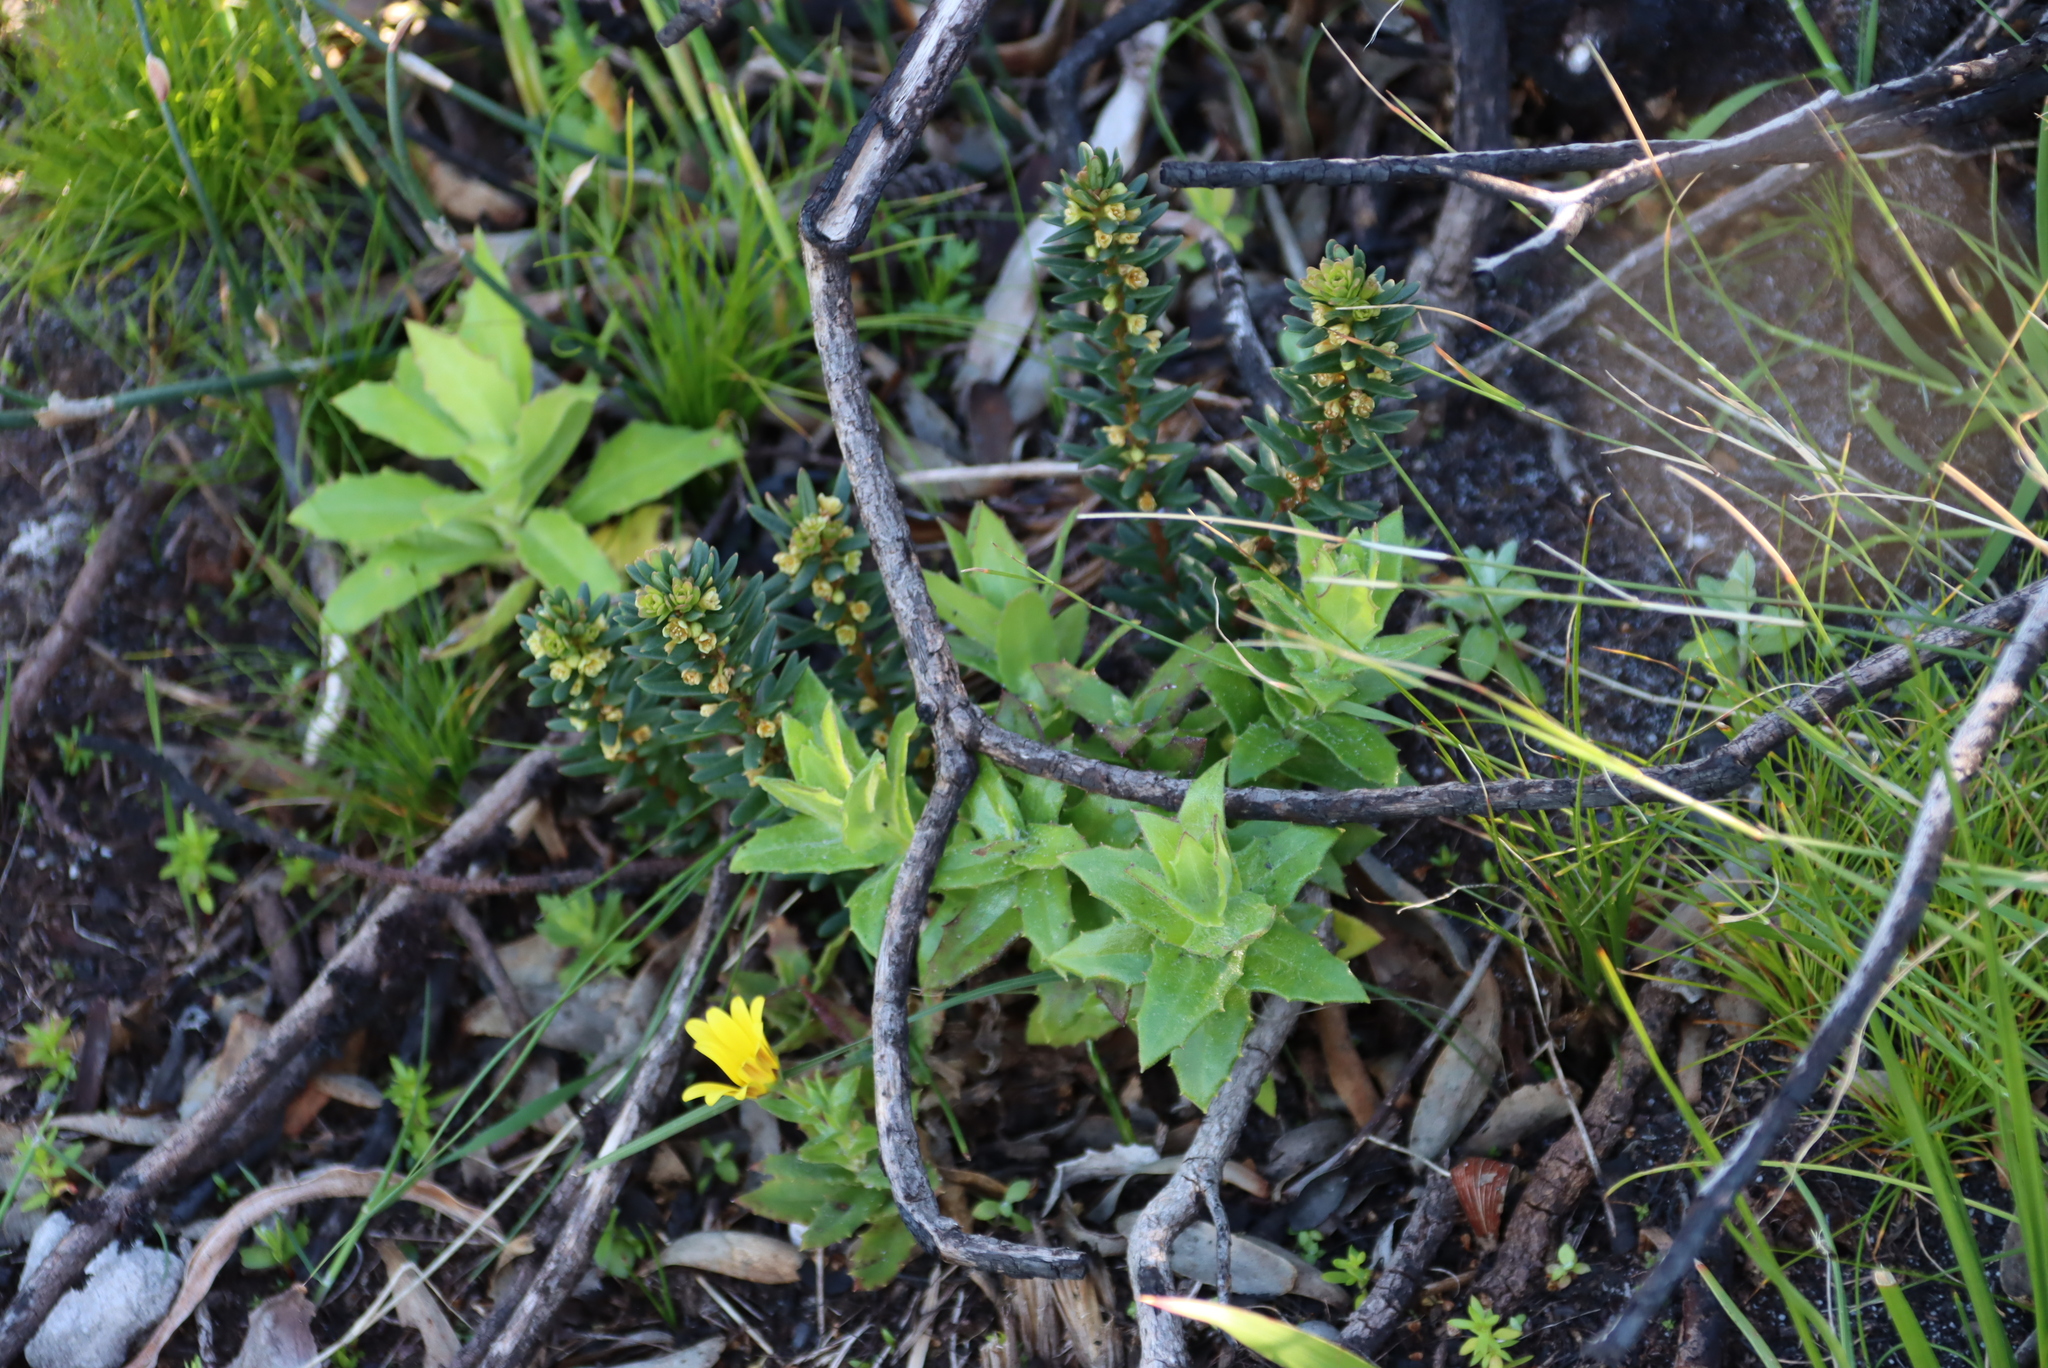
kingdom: Plantae
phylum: Tracheophyta
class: Magnoliopsida
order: Malpighiales
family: Peraceae
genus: Clutia
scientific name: Clutia polygonoides
